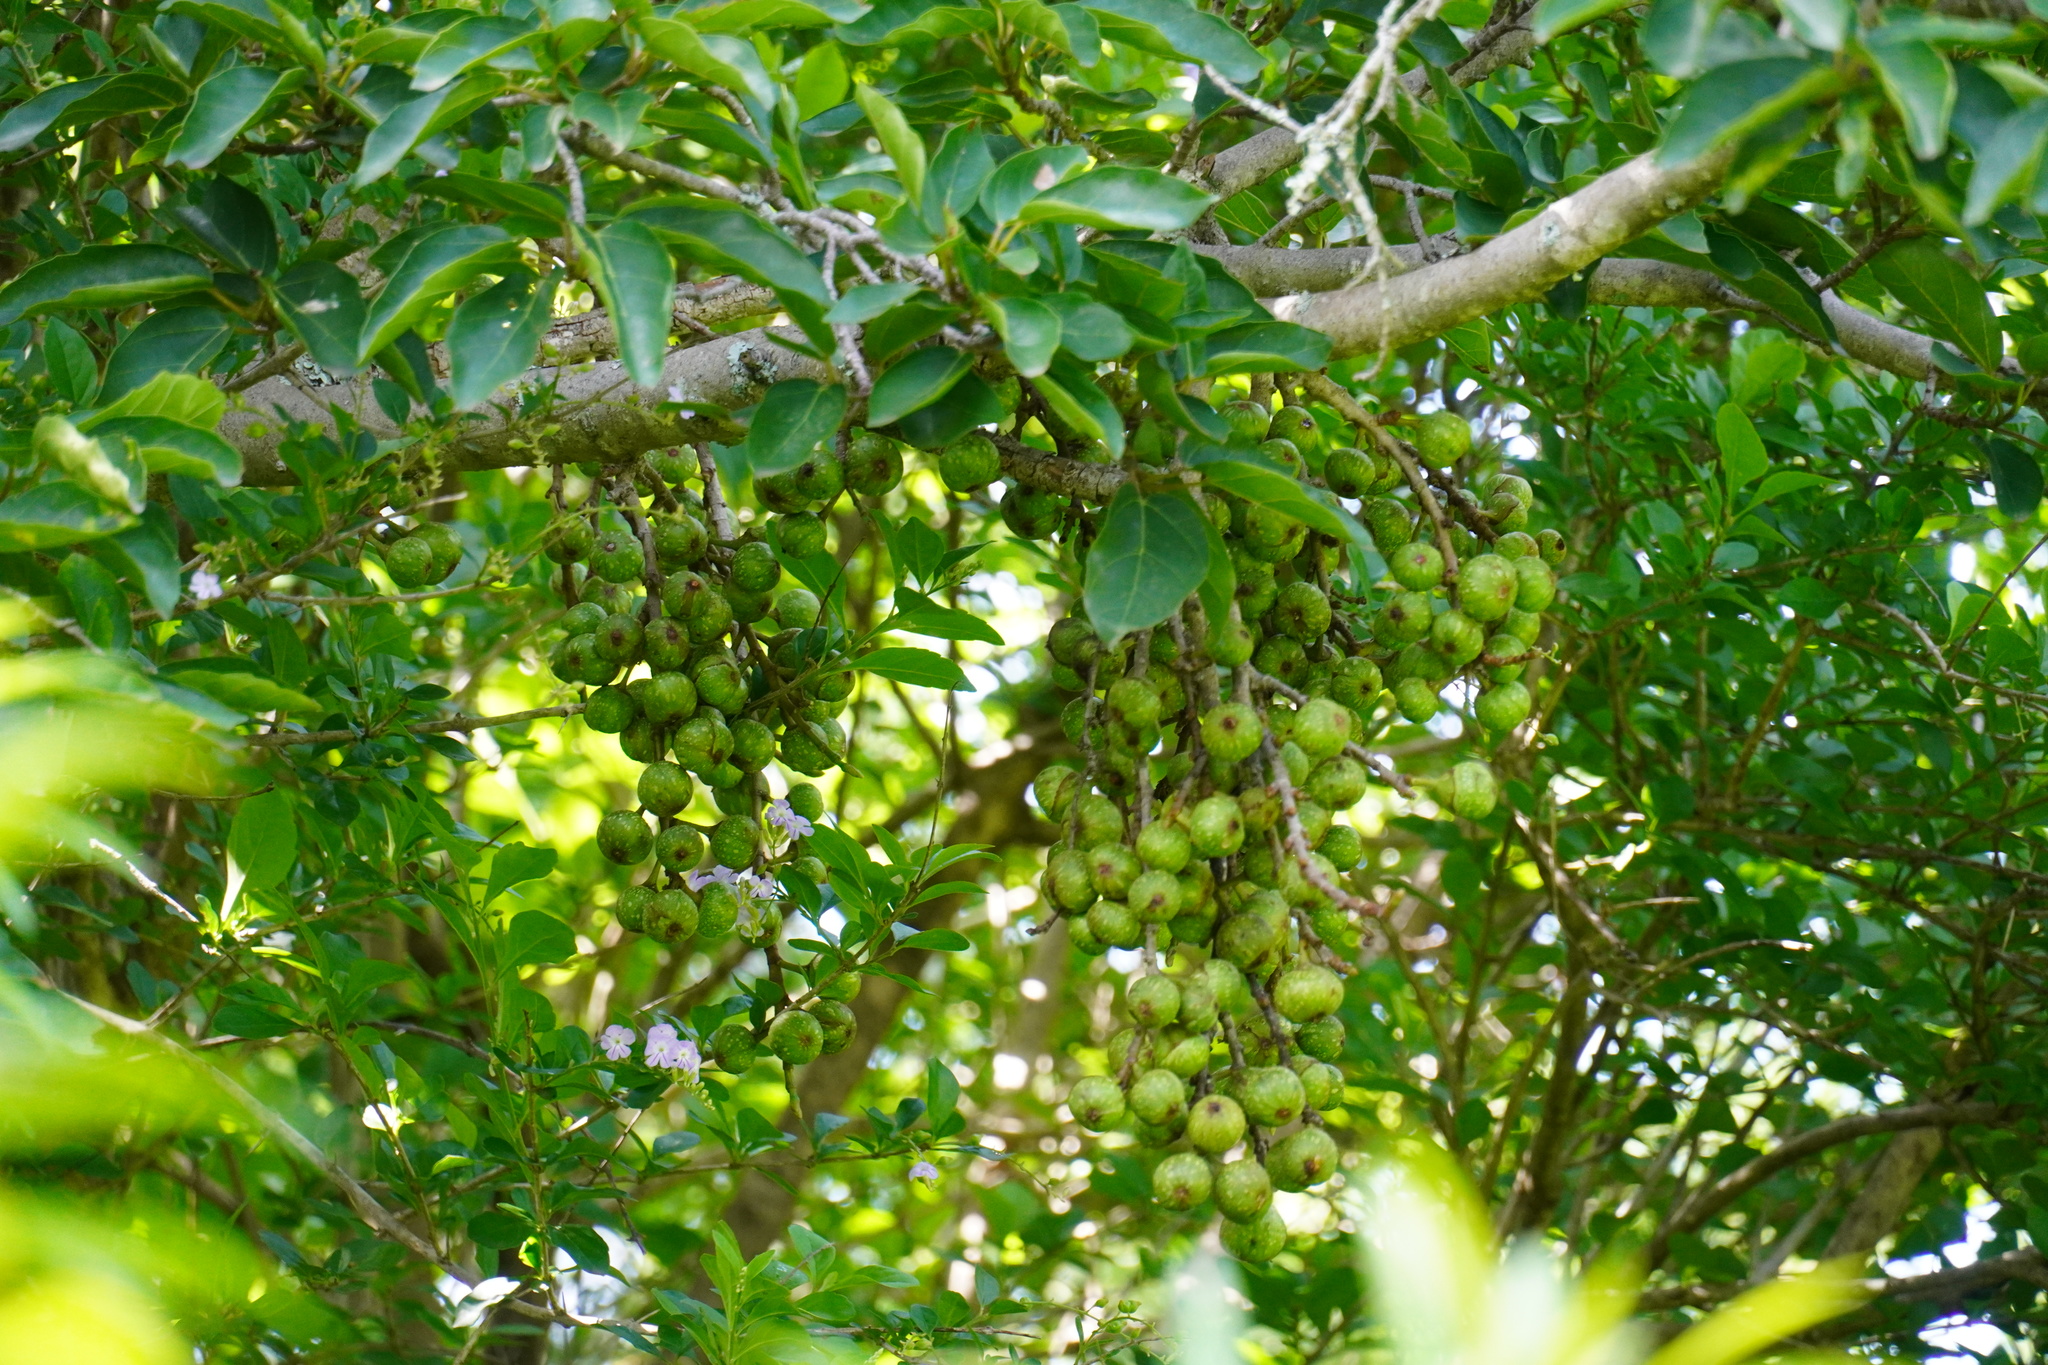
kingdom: Plantae
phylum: Tracheophyta
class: Magnoliopsida
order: Rosales
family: Moraceae
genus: Ficus
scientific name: Ficus sur
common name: Cape fig
